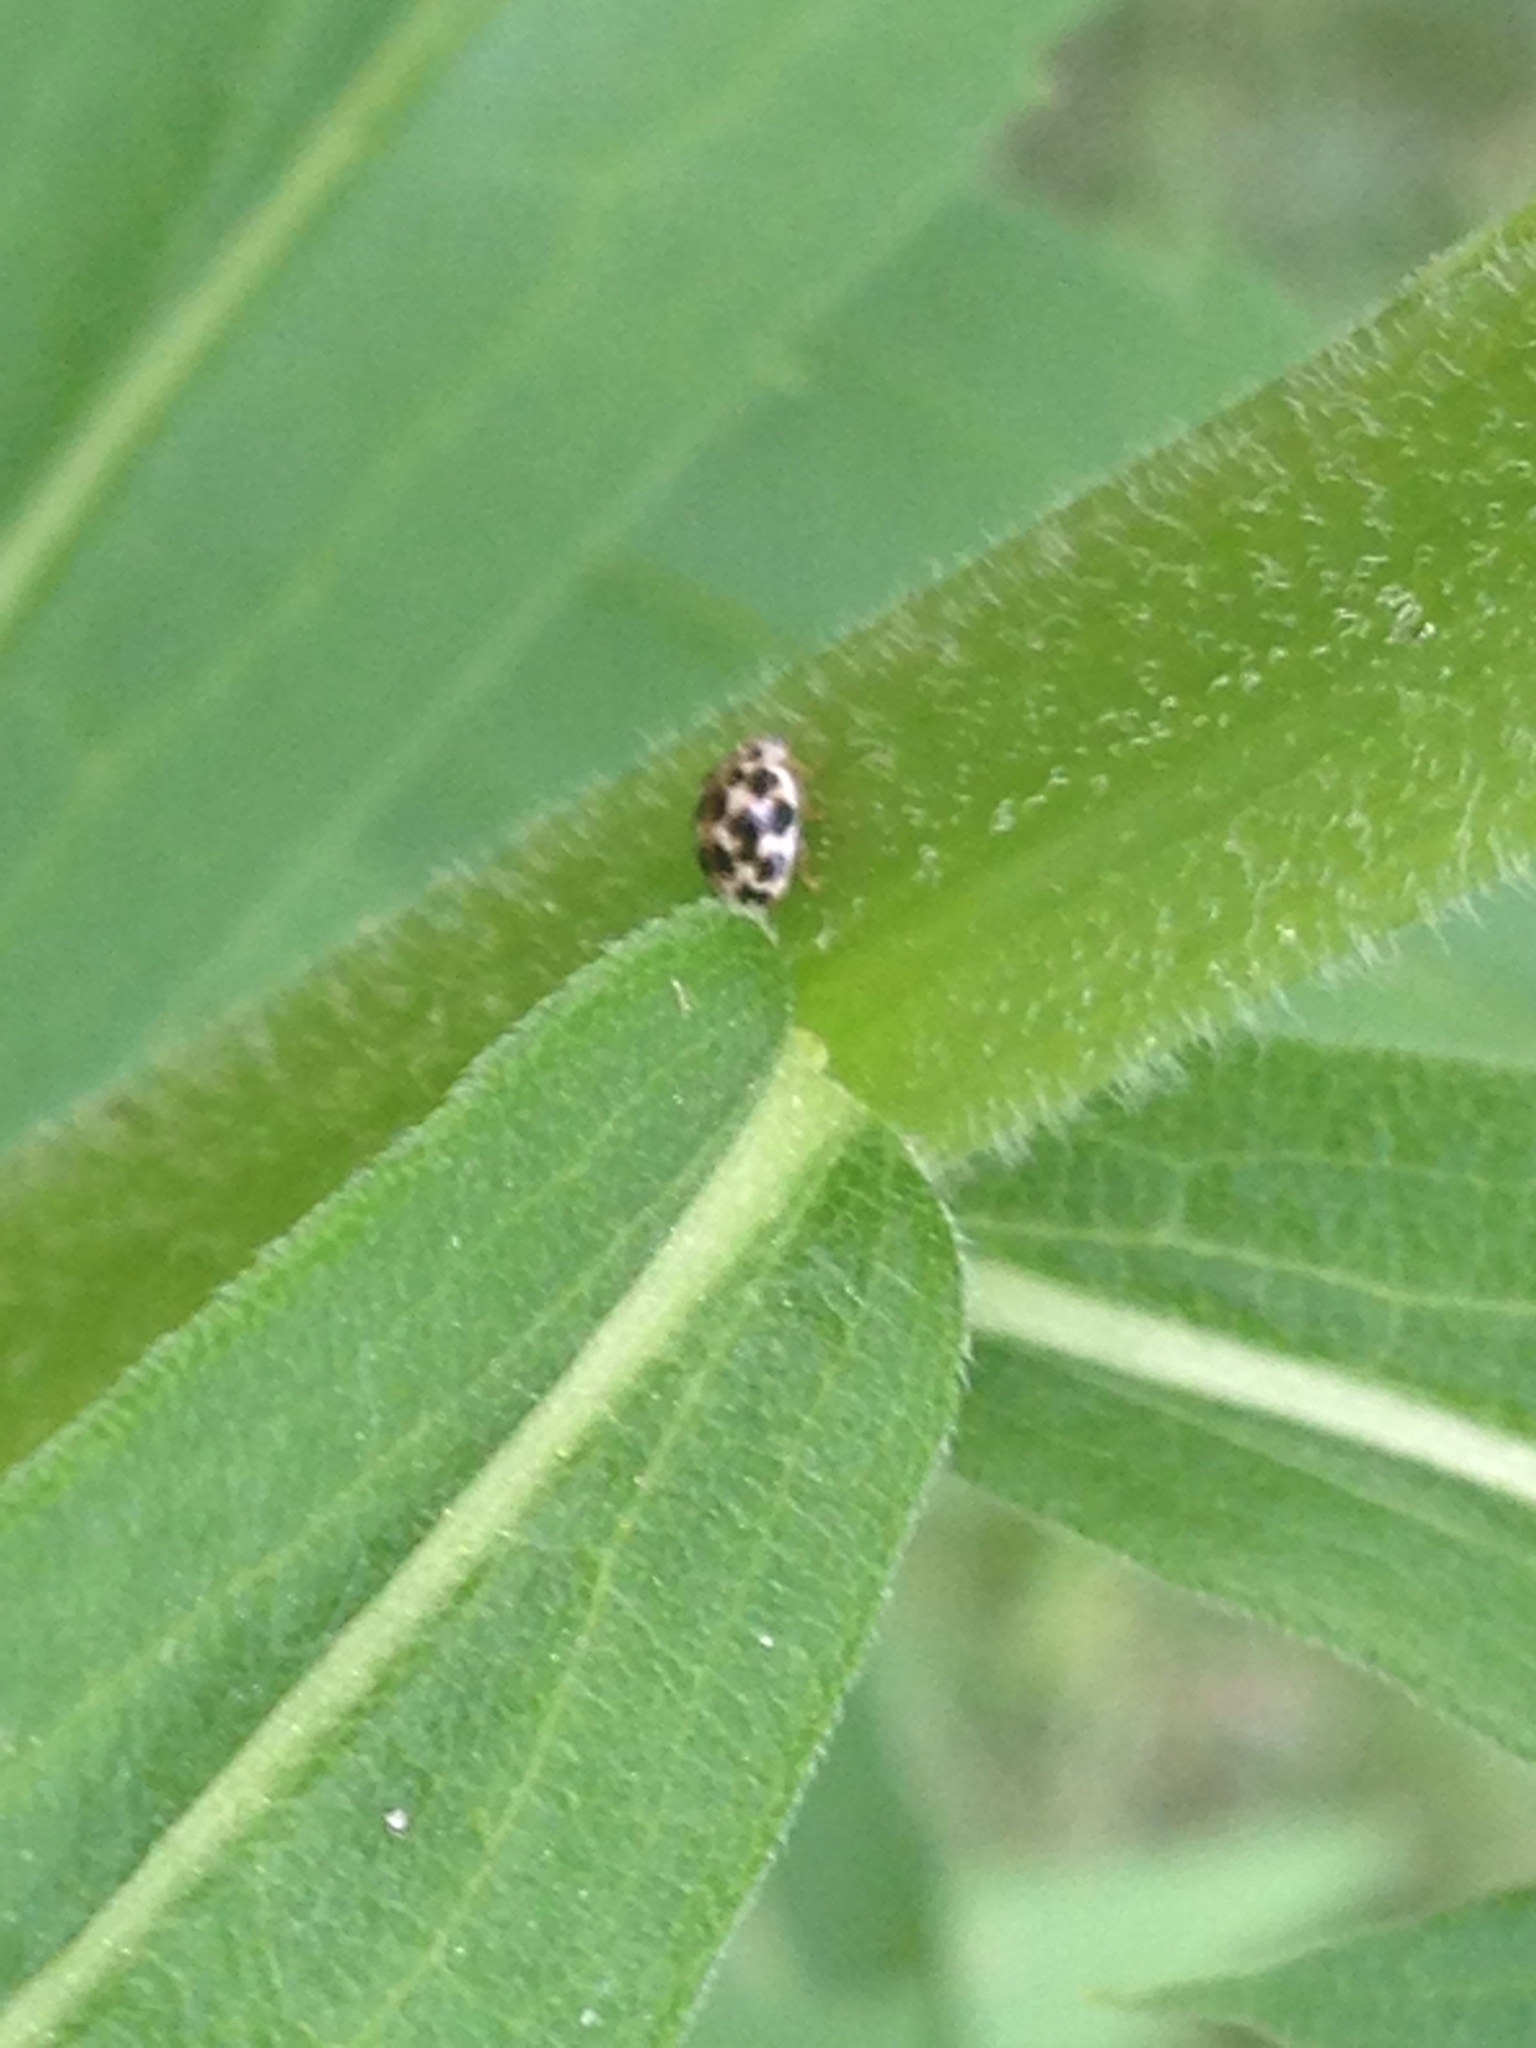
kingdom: Animalia
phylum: Arthropoda
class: Insecta
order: Coleoptera
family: Coccinellidae
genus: Psyllobora
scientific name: Psyllobora vigintimaculata
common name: Ladybird beetle
